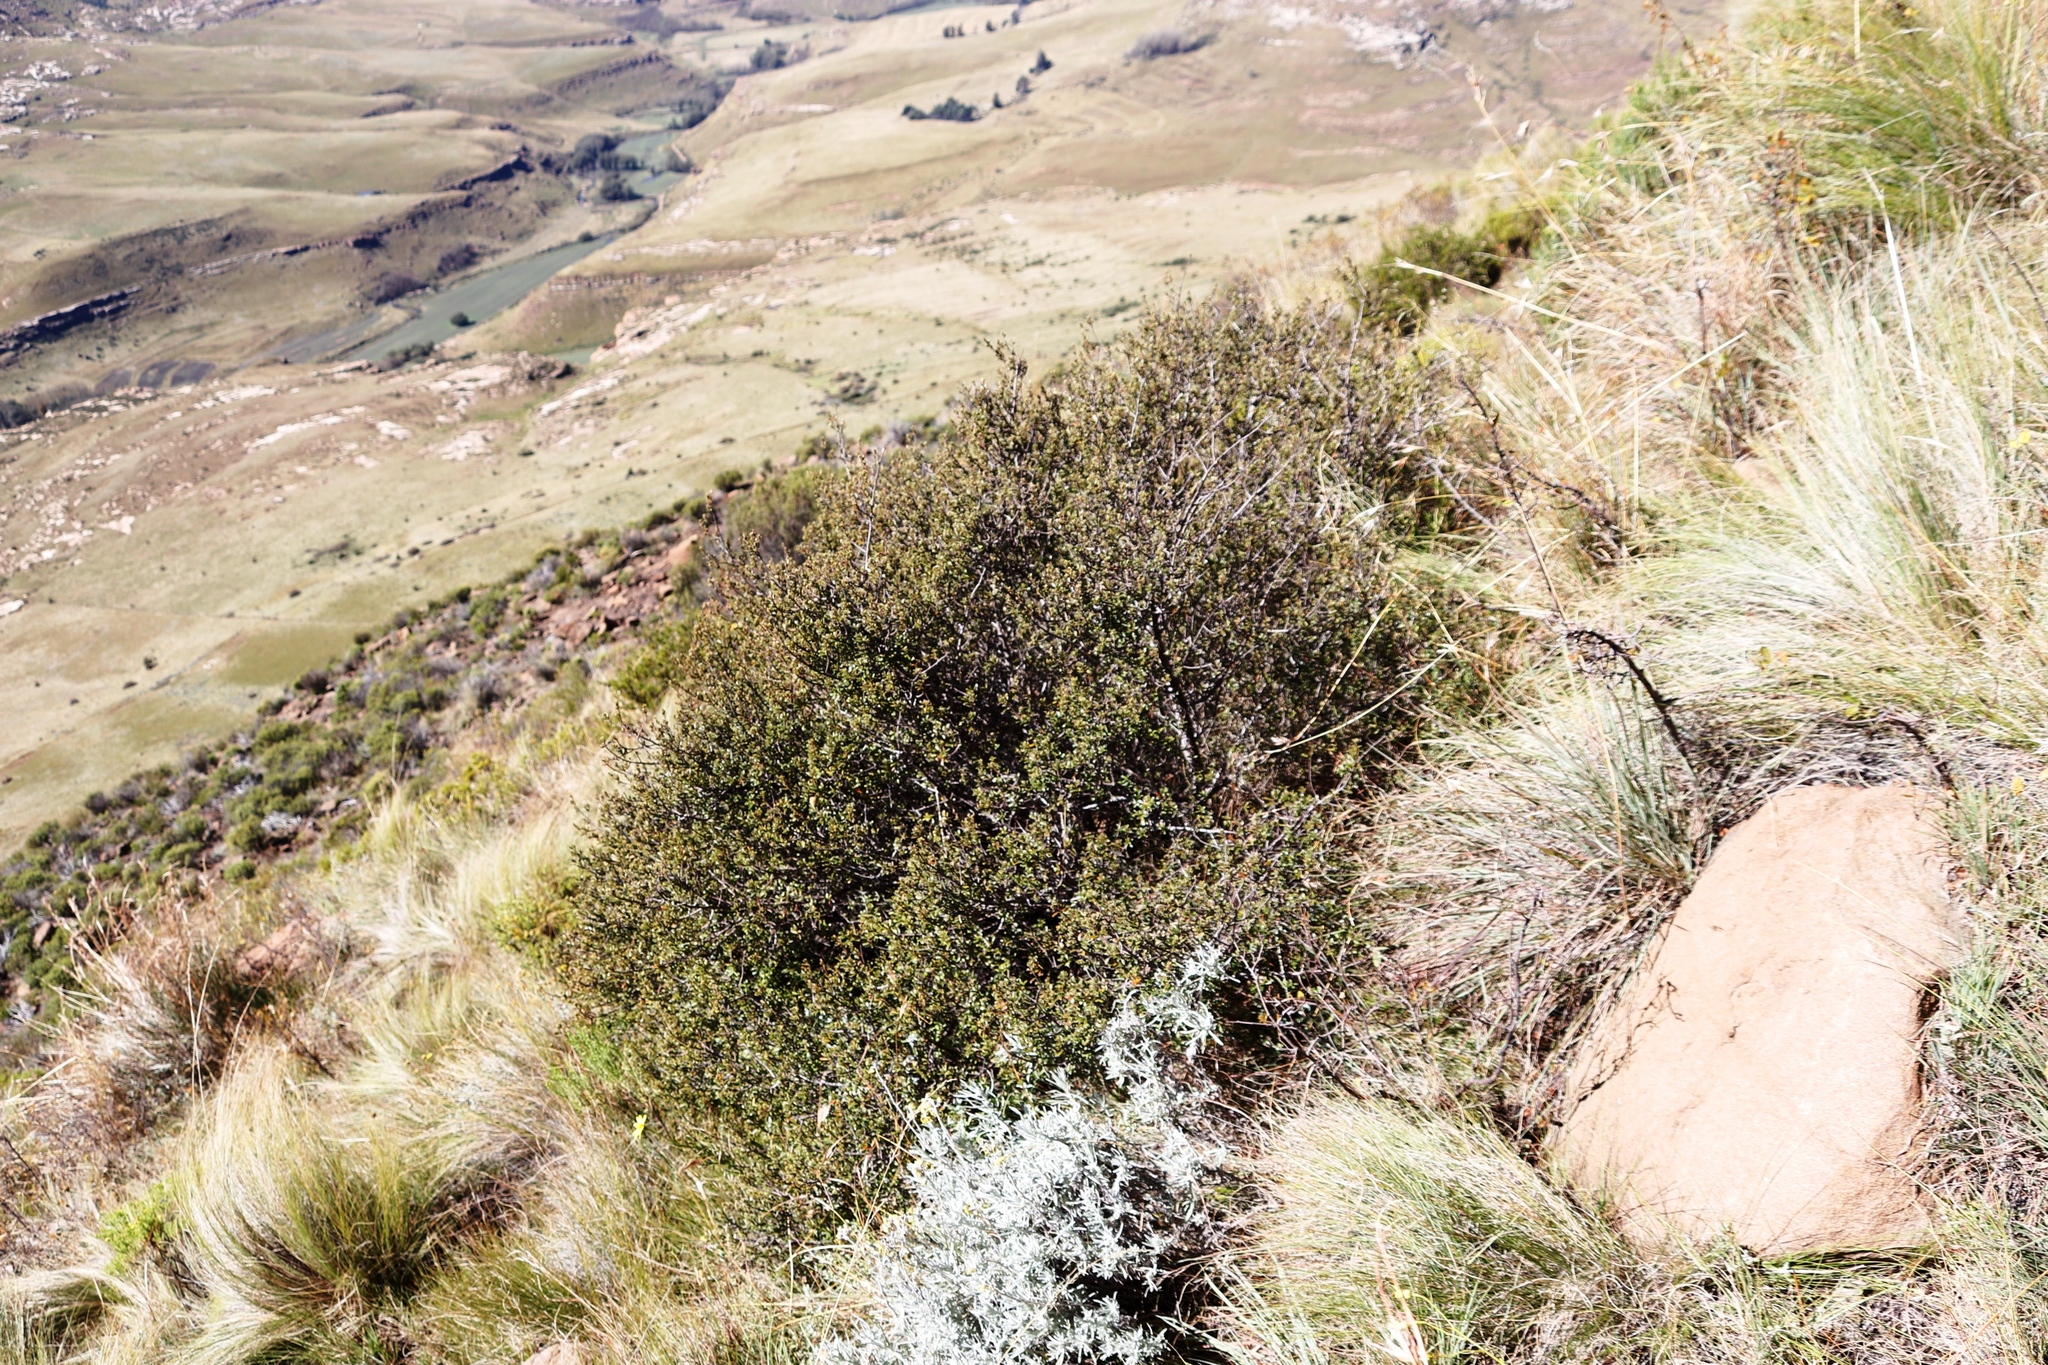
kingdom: Plantae
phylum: Tracheophyta
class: Magnoliopsida
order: Ericales
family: Ebenaceae
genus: Diospyros
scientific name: Diospyros pubescens
